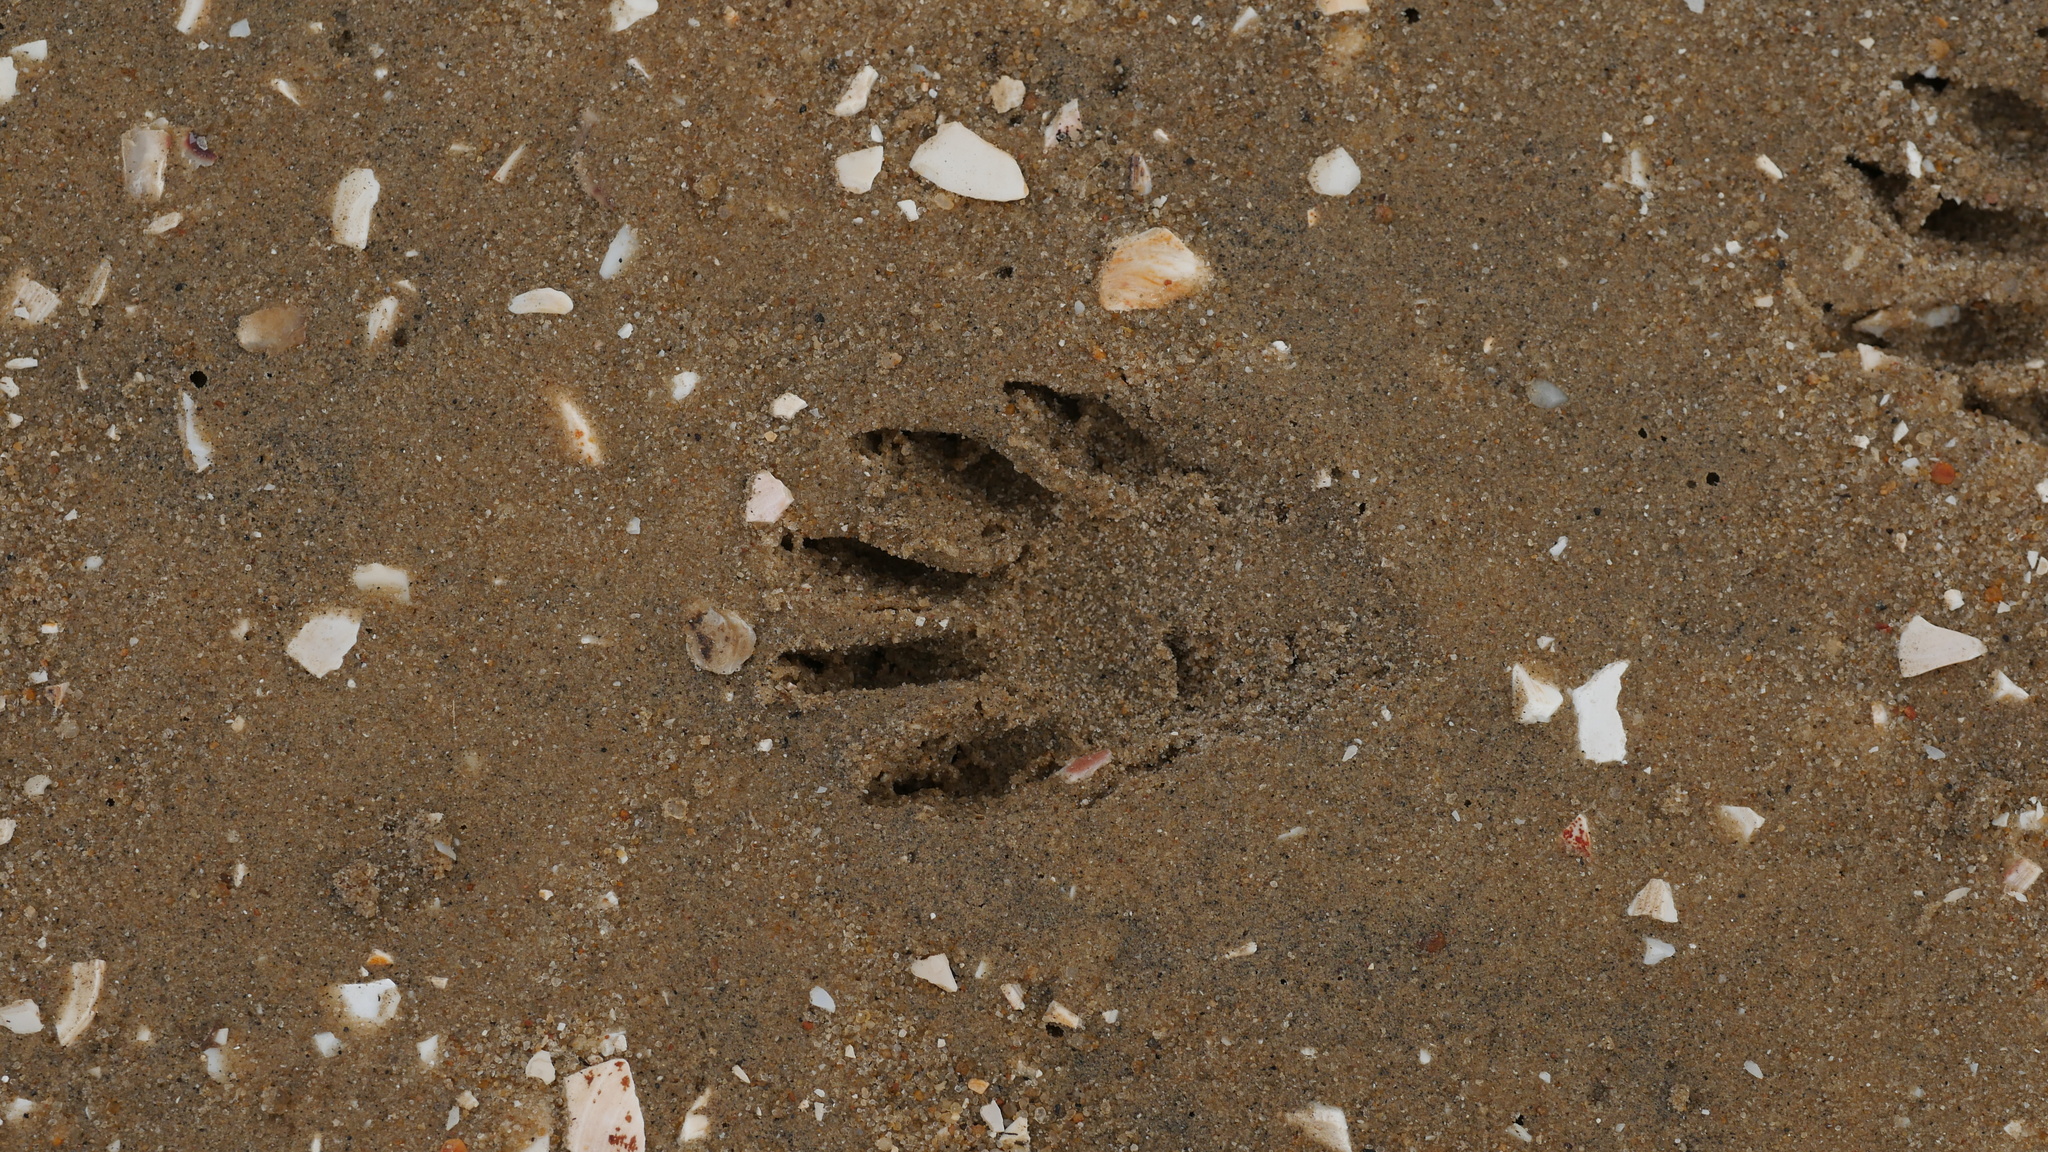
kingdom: Animalia
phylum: Chordata
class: Mammalia
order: Carnivora
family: Procyonidae
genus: Procyon
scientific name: Procyon lotor
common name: Raccoon
